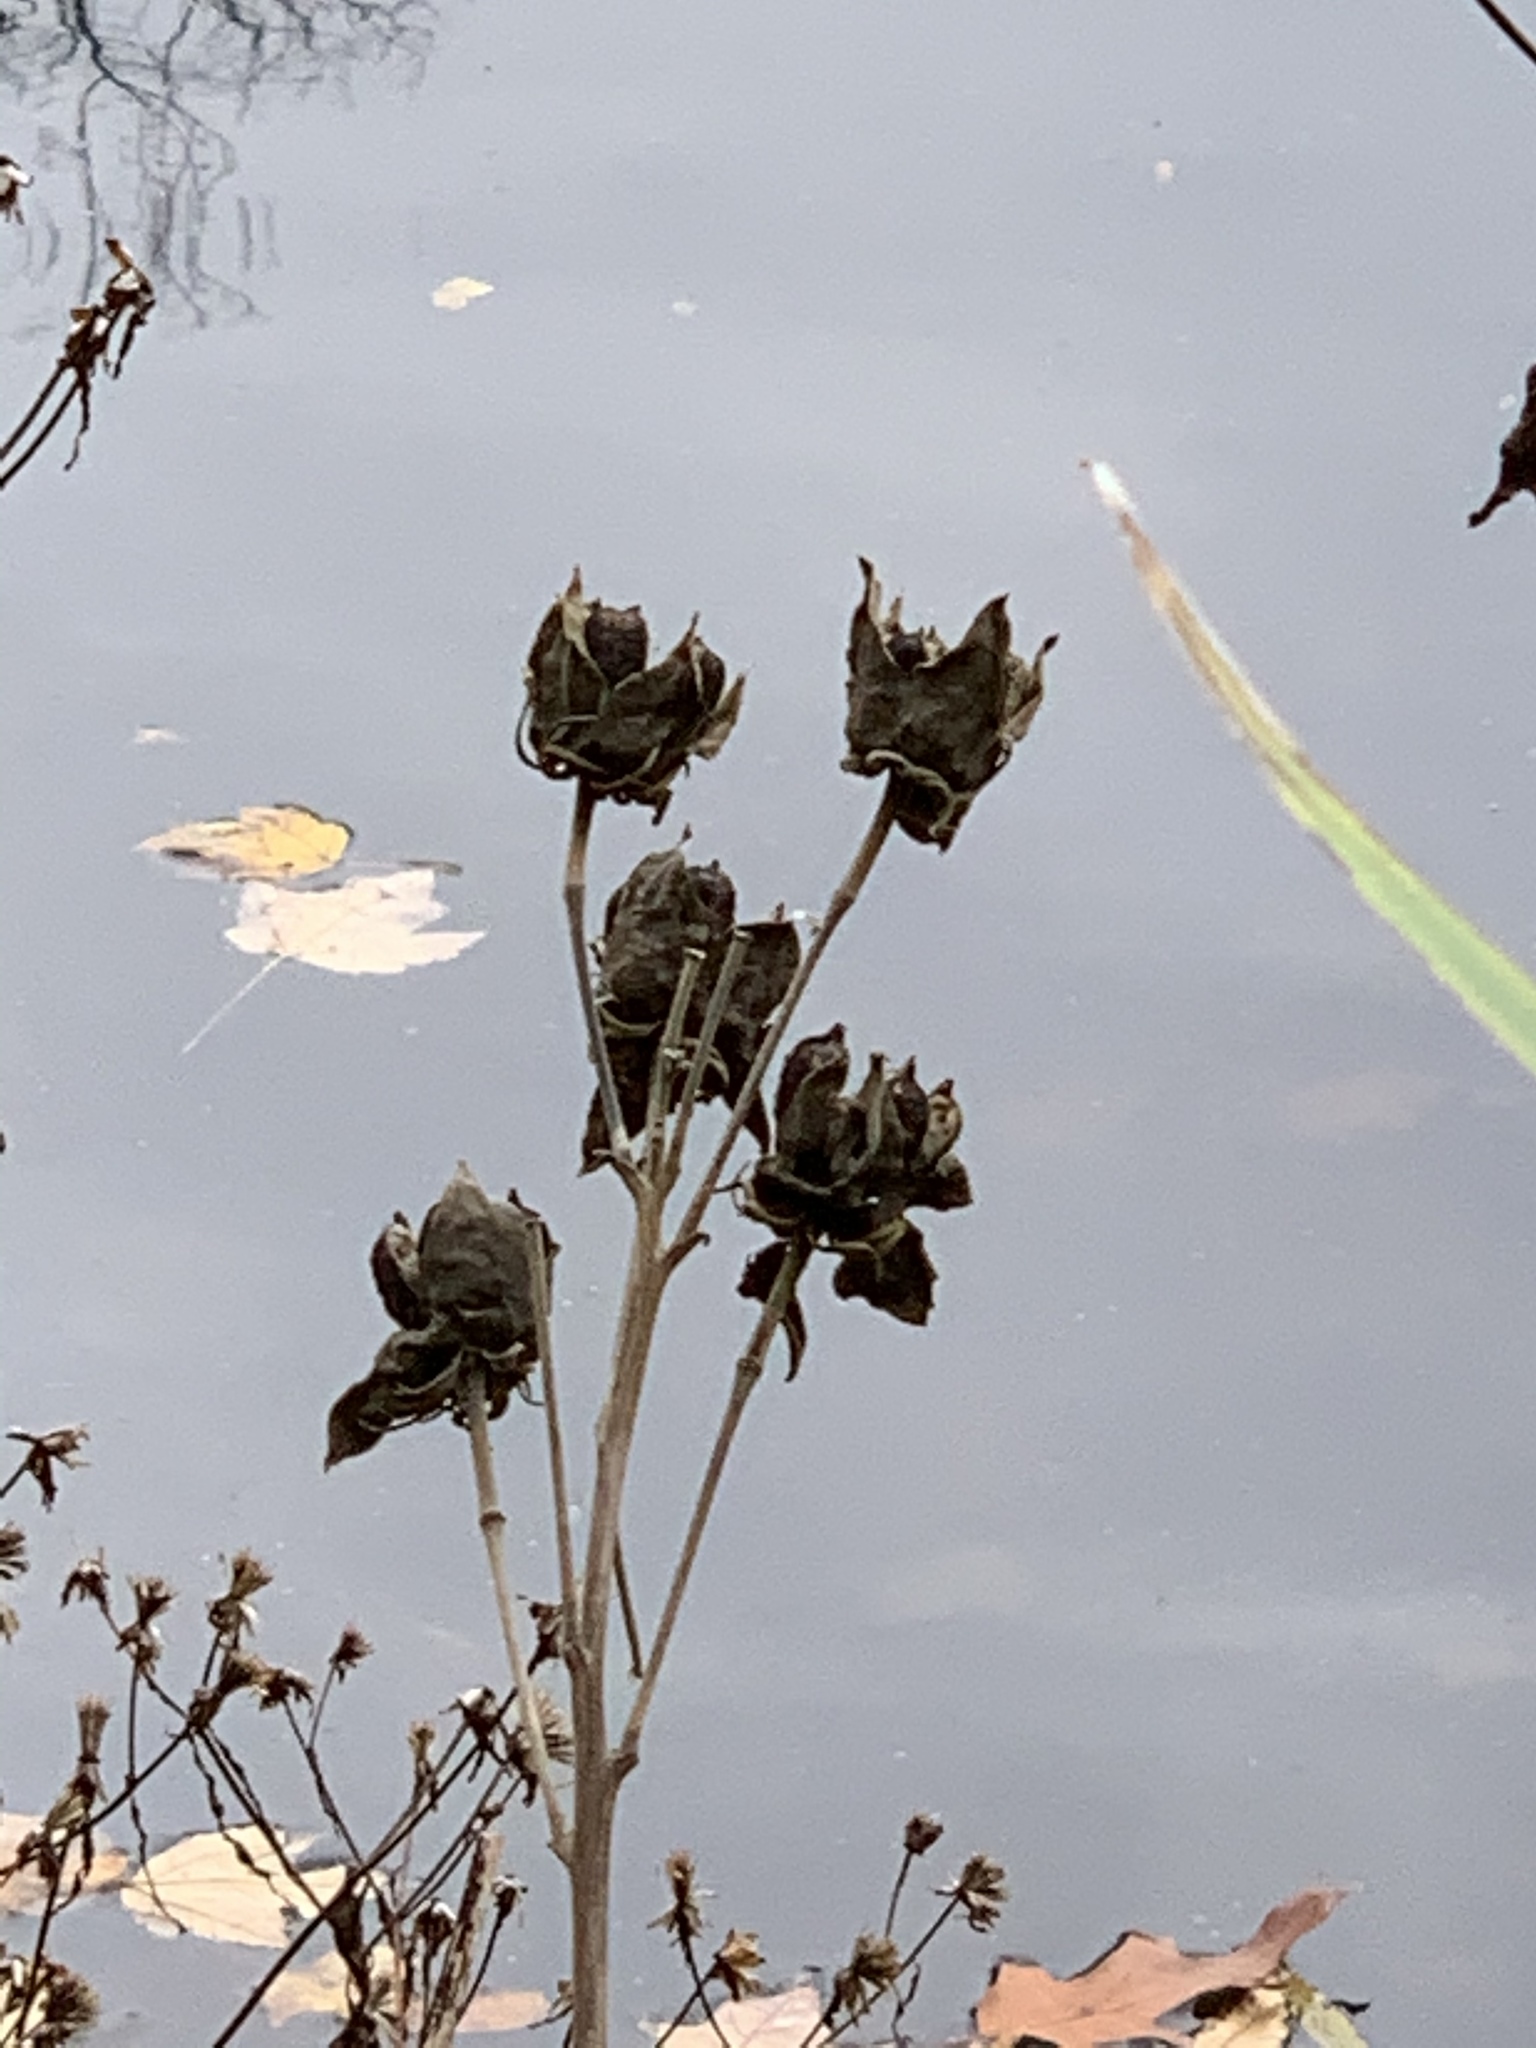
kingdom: Plantae
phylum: Tracheophyta
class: Magnoliopsida
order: Malvales
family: Malvaceae
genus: Hibiscus
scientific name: Hibiscus moscheutos
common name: Common rose-mallow
